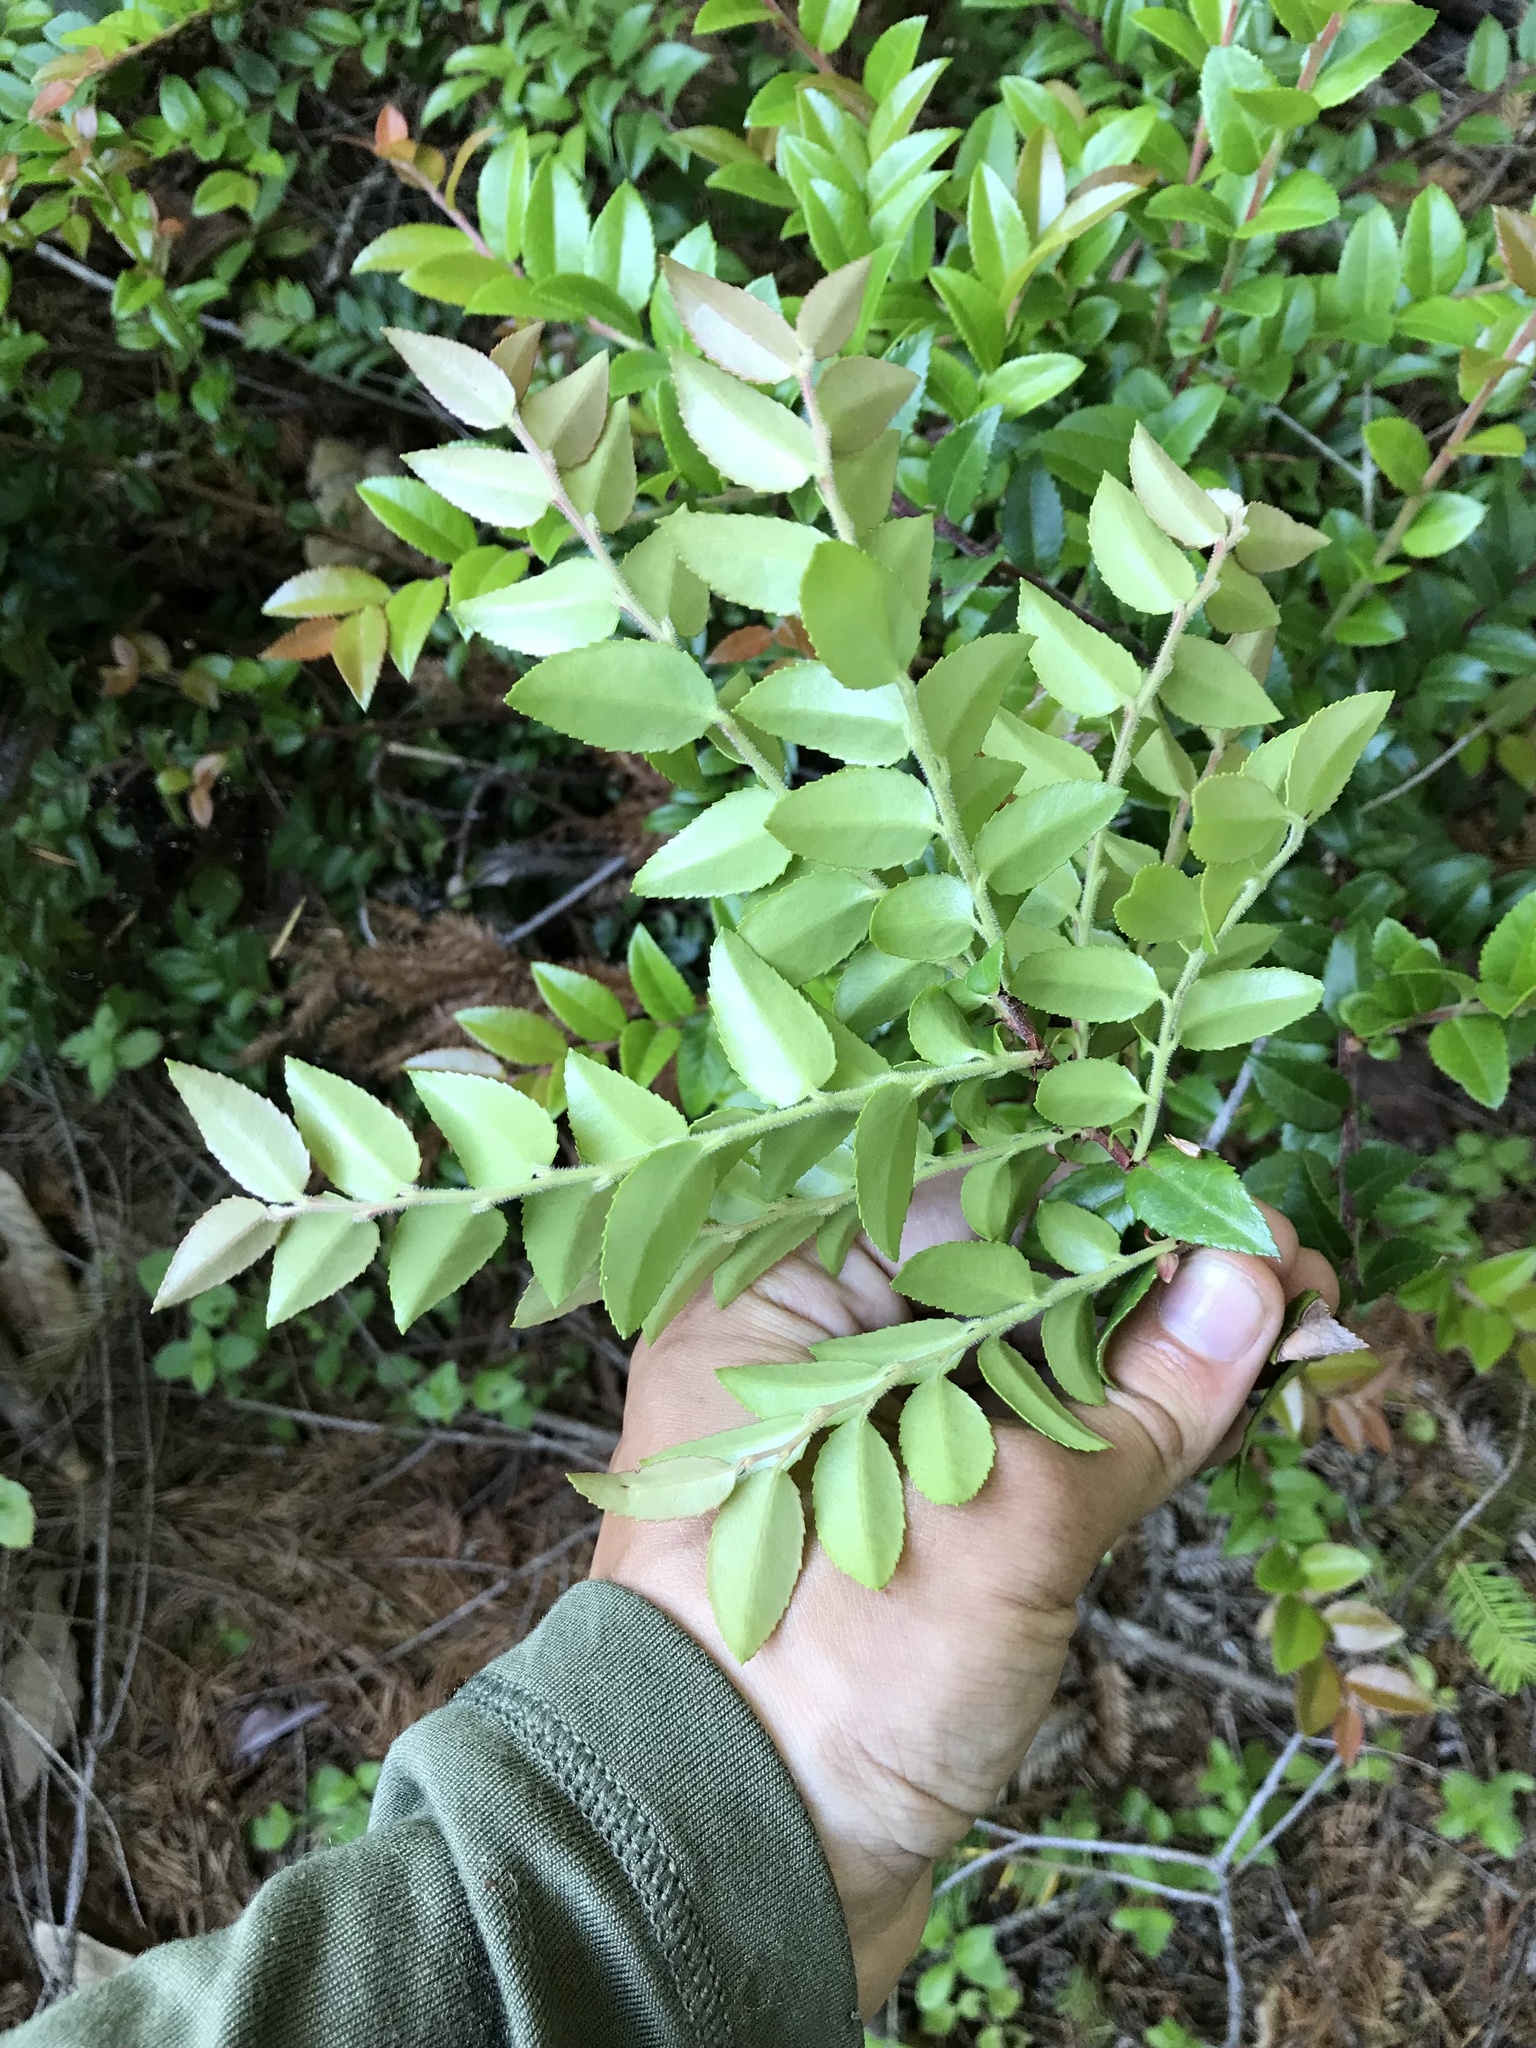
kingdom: Plantae
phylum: Tracheophyta
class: Magnoliopsida
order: Ericales
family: Ericaceae
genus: Vaccinium
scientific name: Vaccinium ovatum
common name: California-huckleberry
